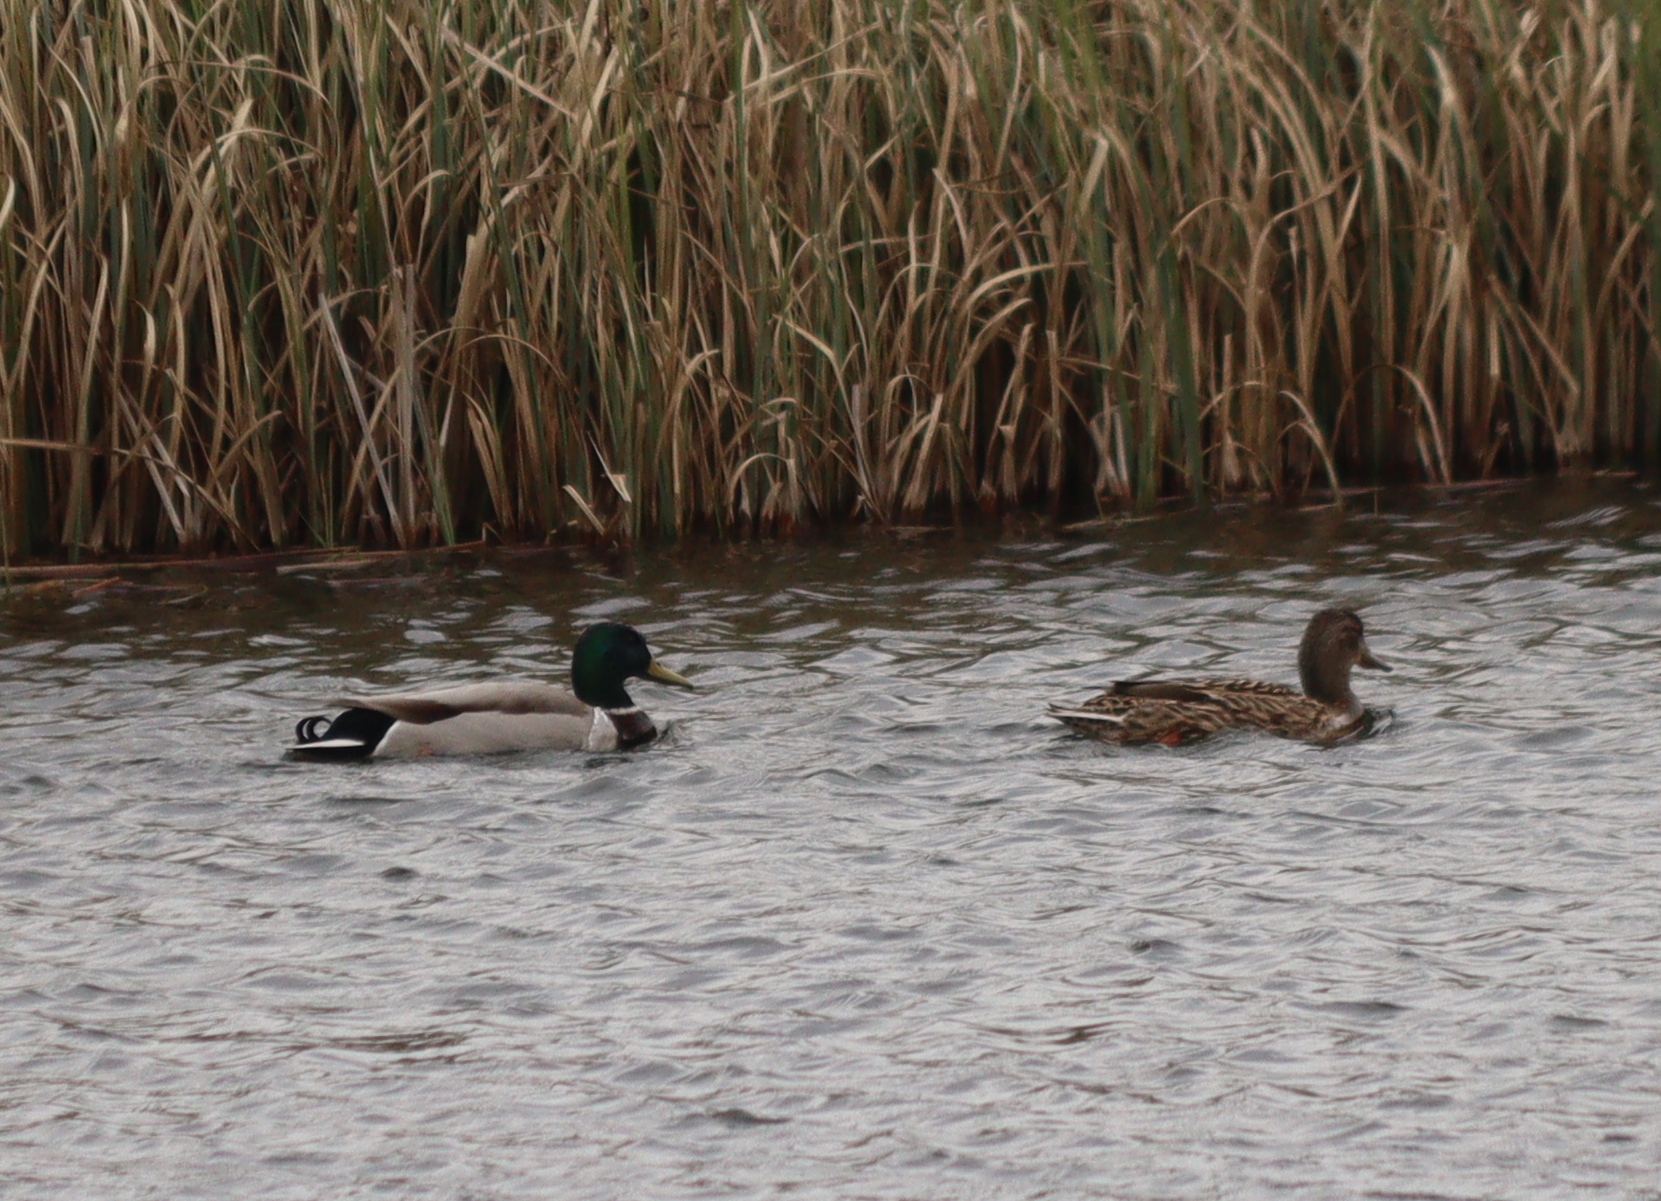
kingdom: Animalia
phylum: Chordata
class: Aves
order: Anseriformes
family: Anatidae
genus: Anas
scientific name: Anas platyrhynchos
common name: Mallard
